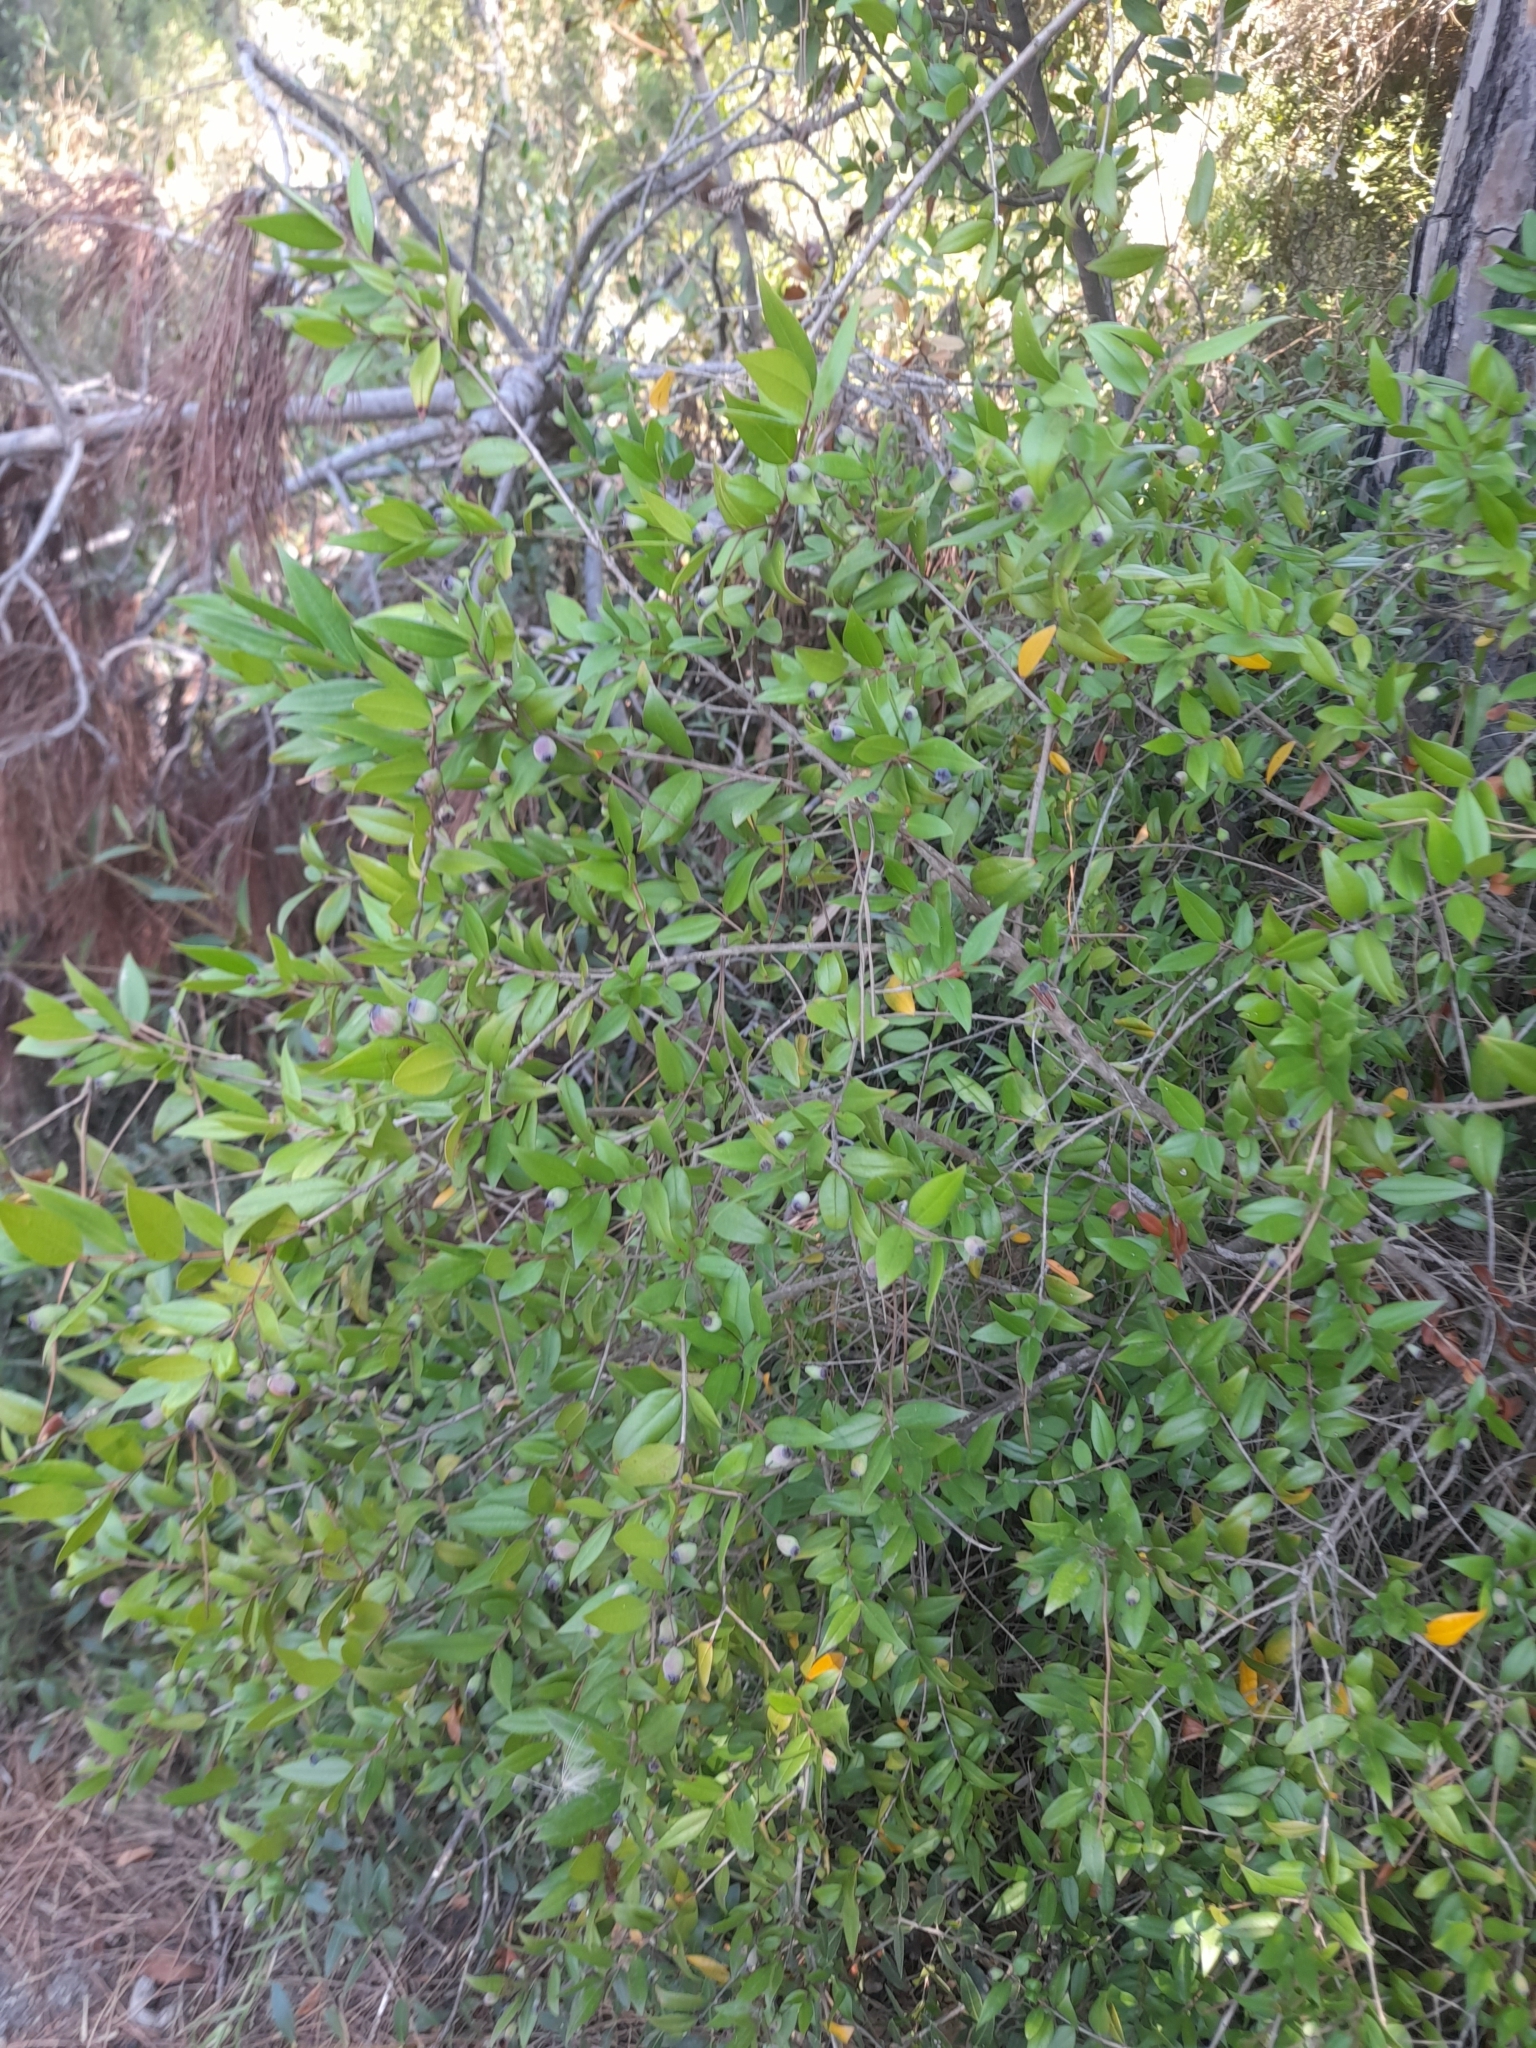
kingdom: Plantae
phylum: Tracheophyta
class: Magnoliopsida
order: Myrtales
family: Myrtaceae
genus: Myrtus
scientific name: Myrtus communis
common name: Myrtle
